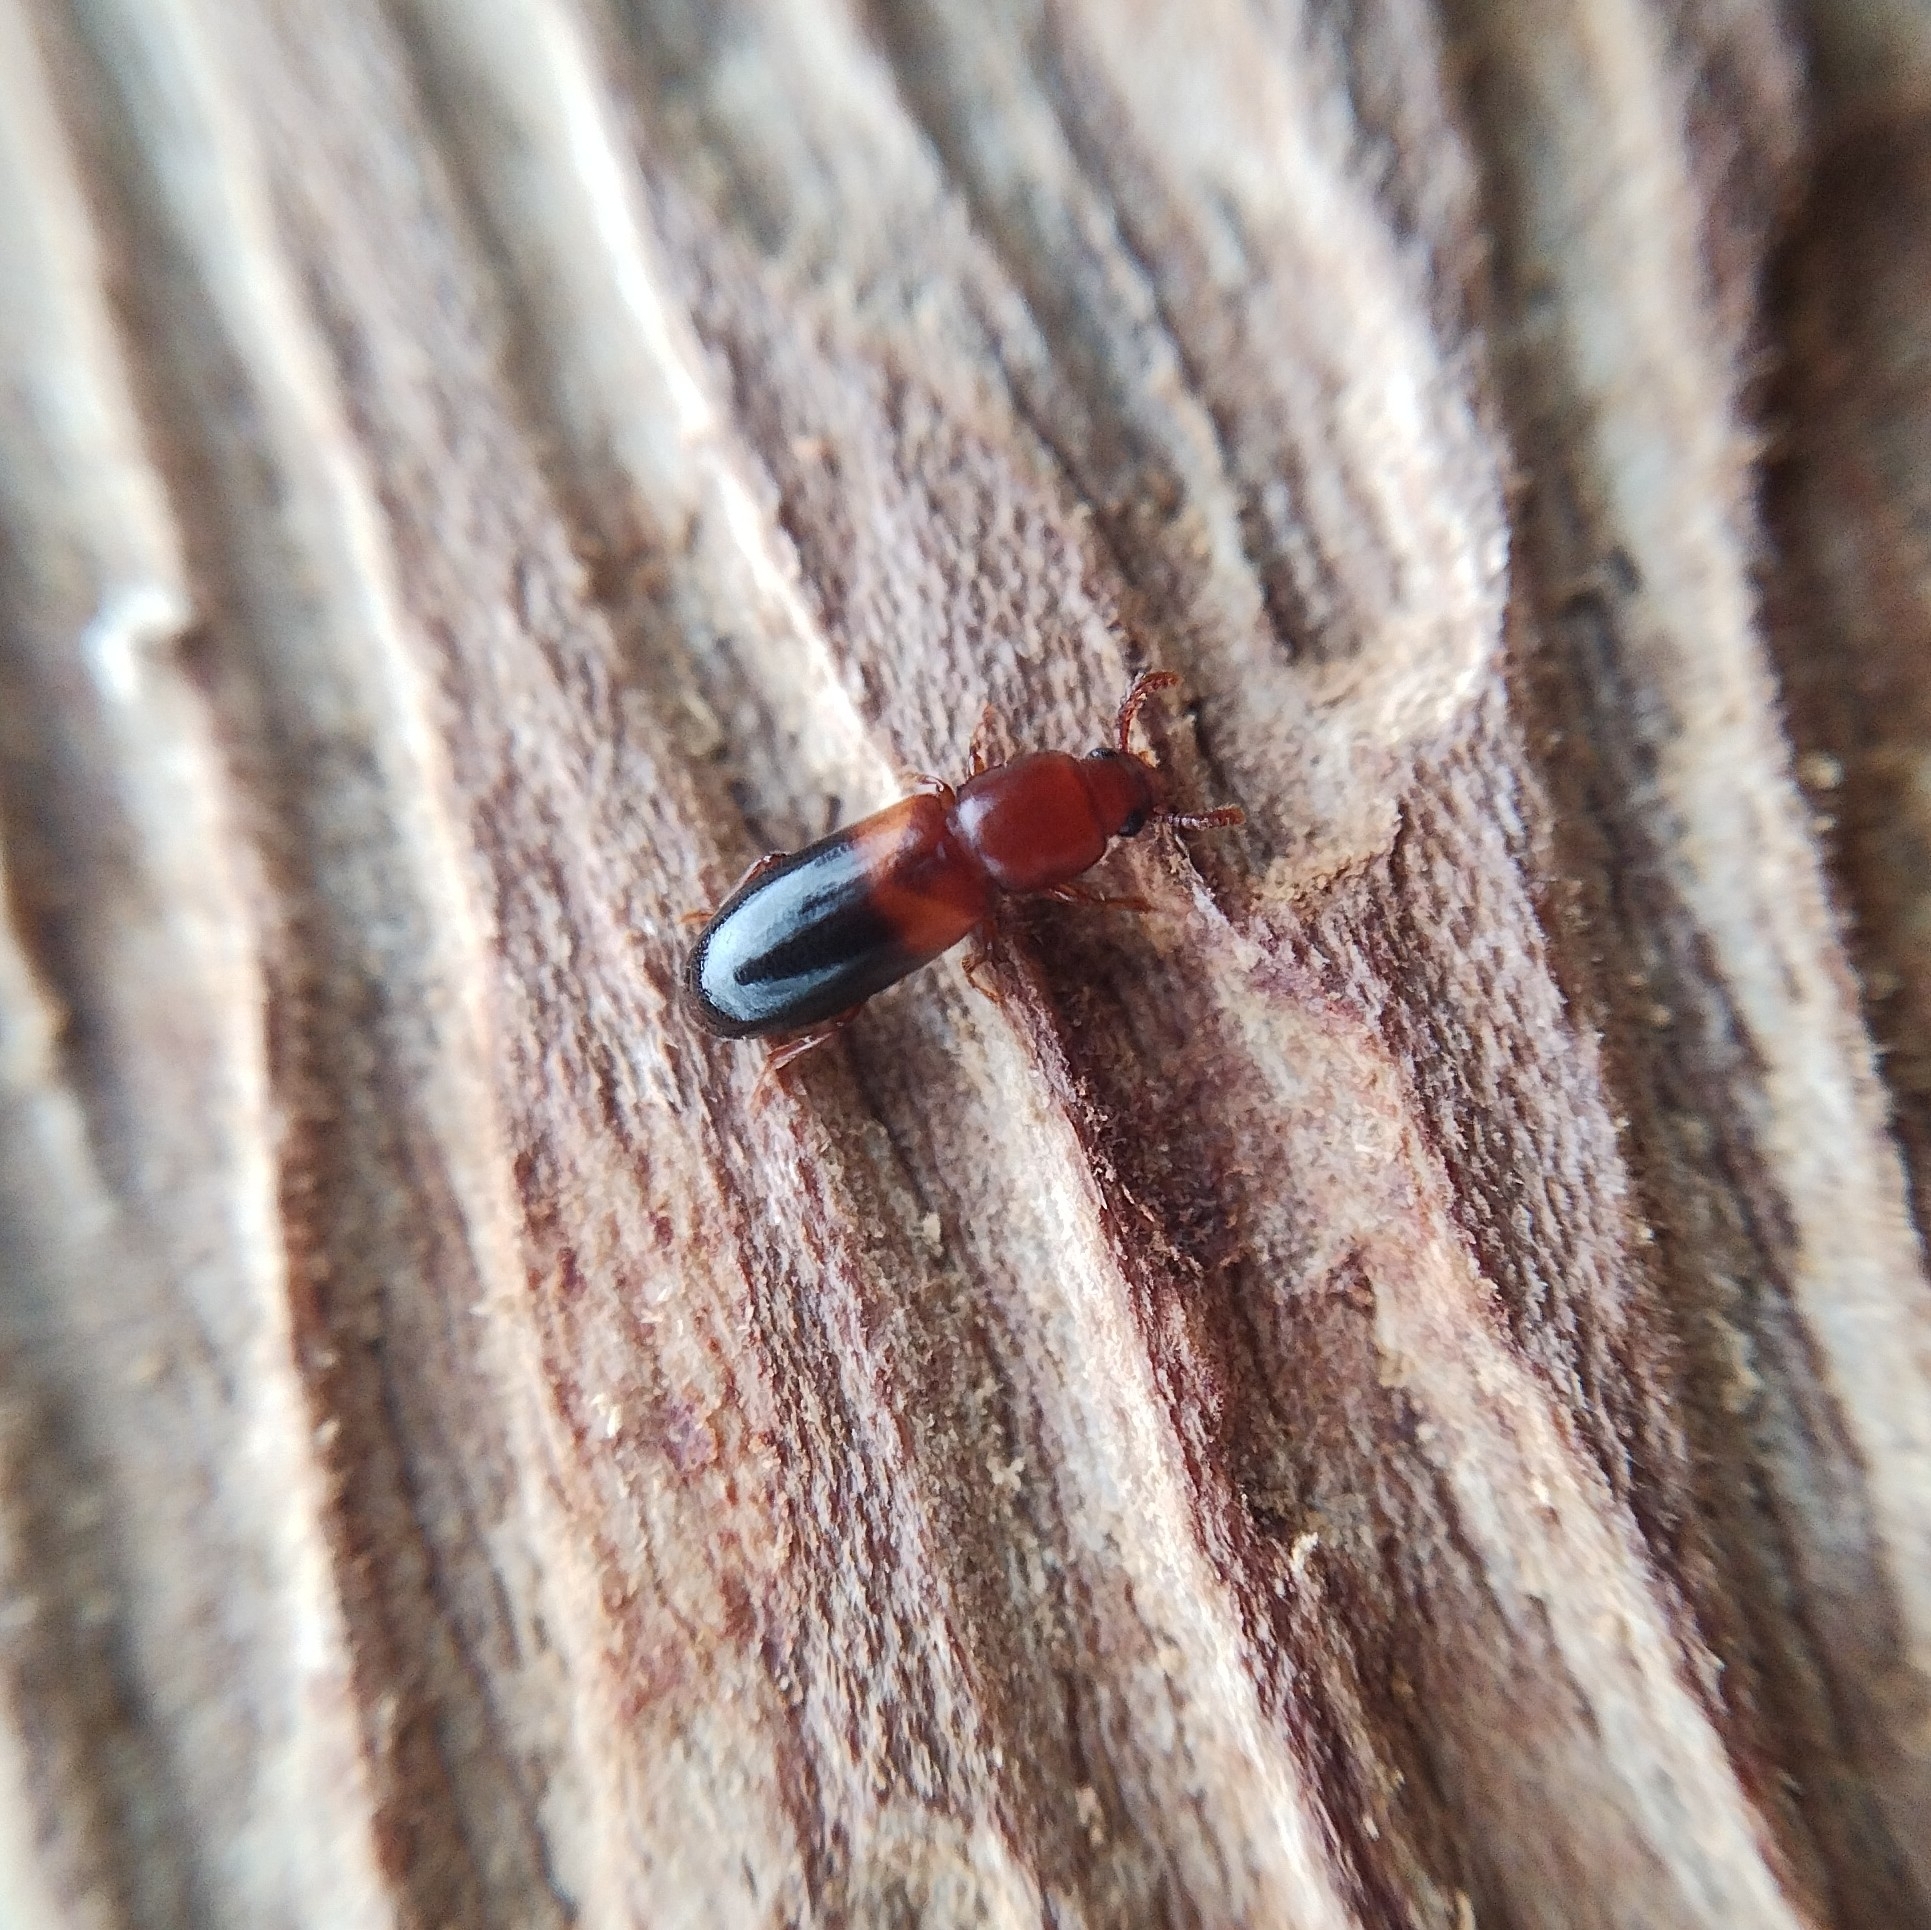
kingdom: Animalia
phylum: Arthropoda
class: Insecta
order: Coleoptera
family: Tenebrionidae
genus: Corticeus
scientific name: Corticeus bicolor
